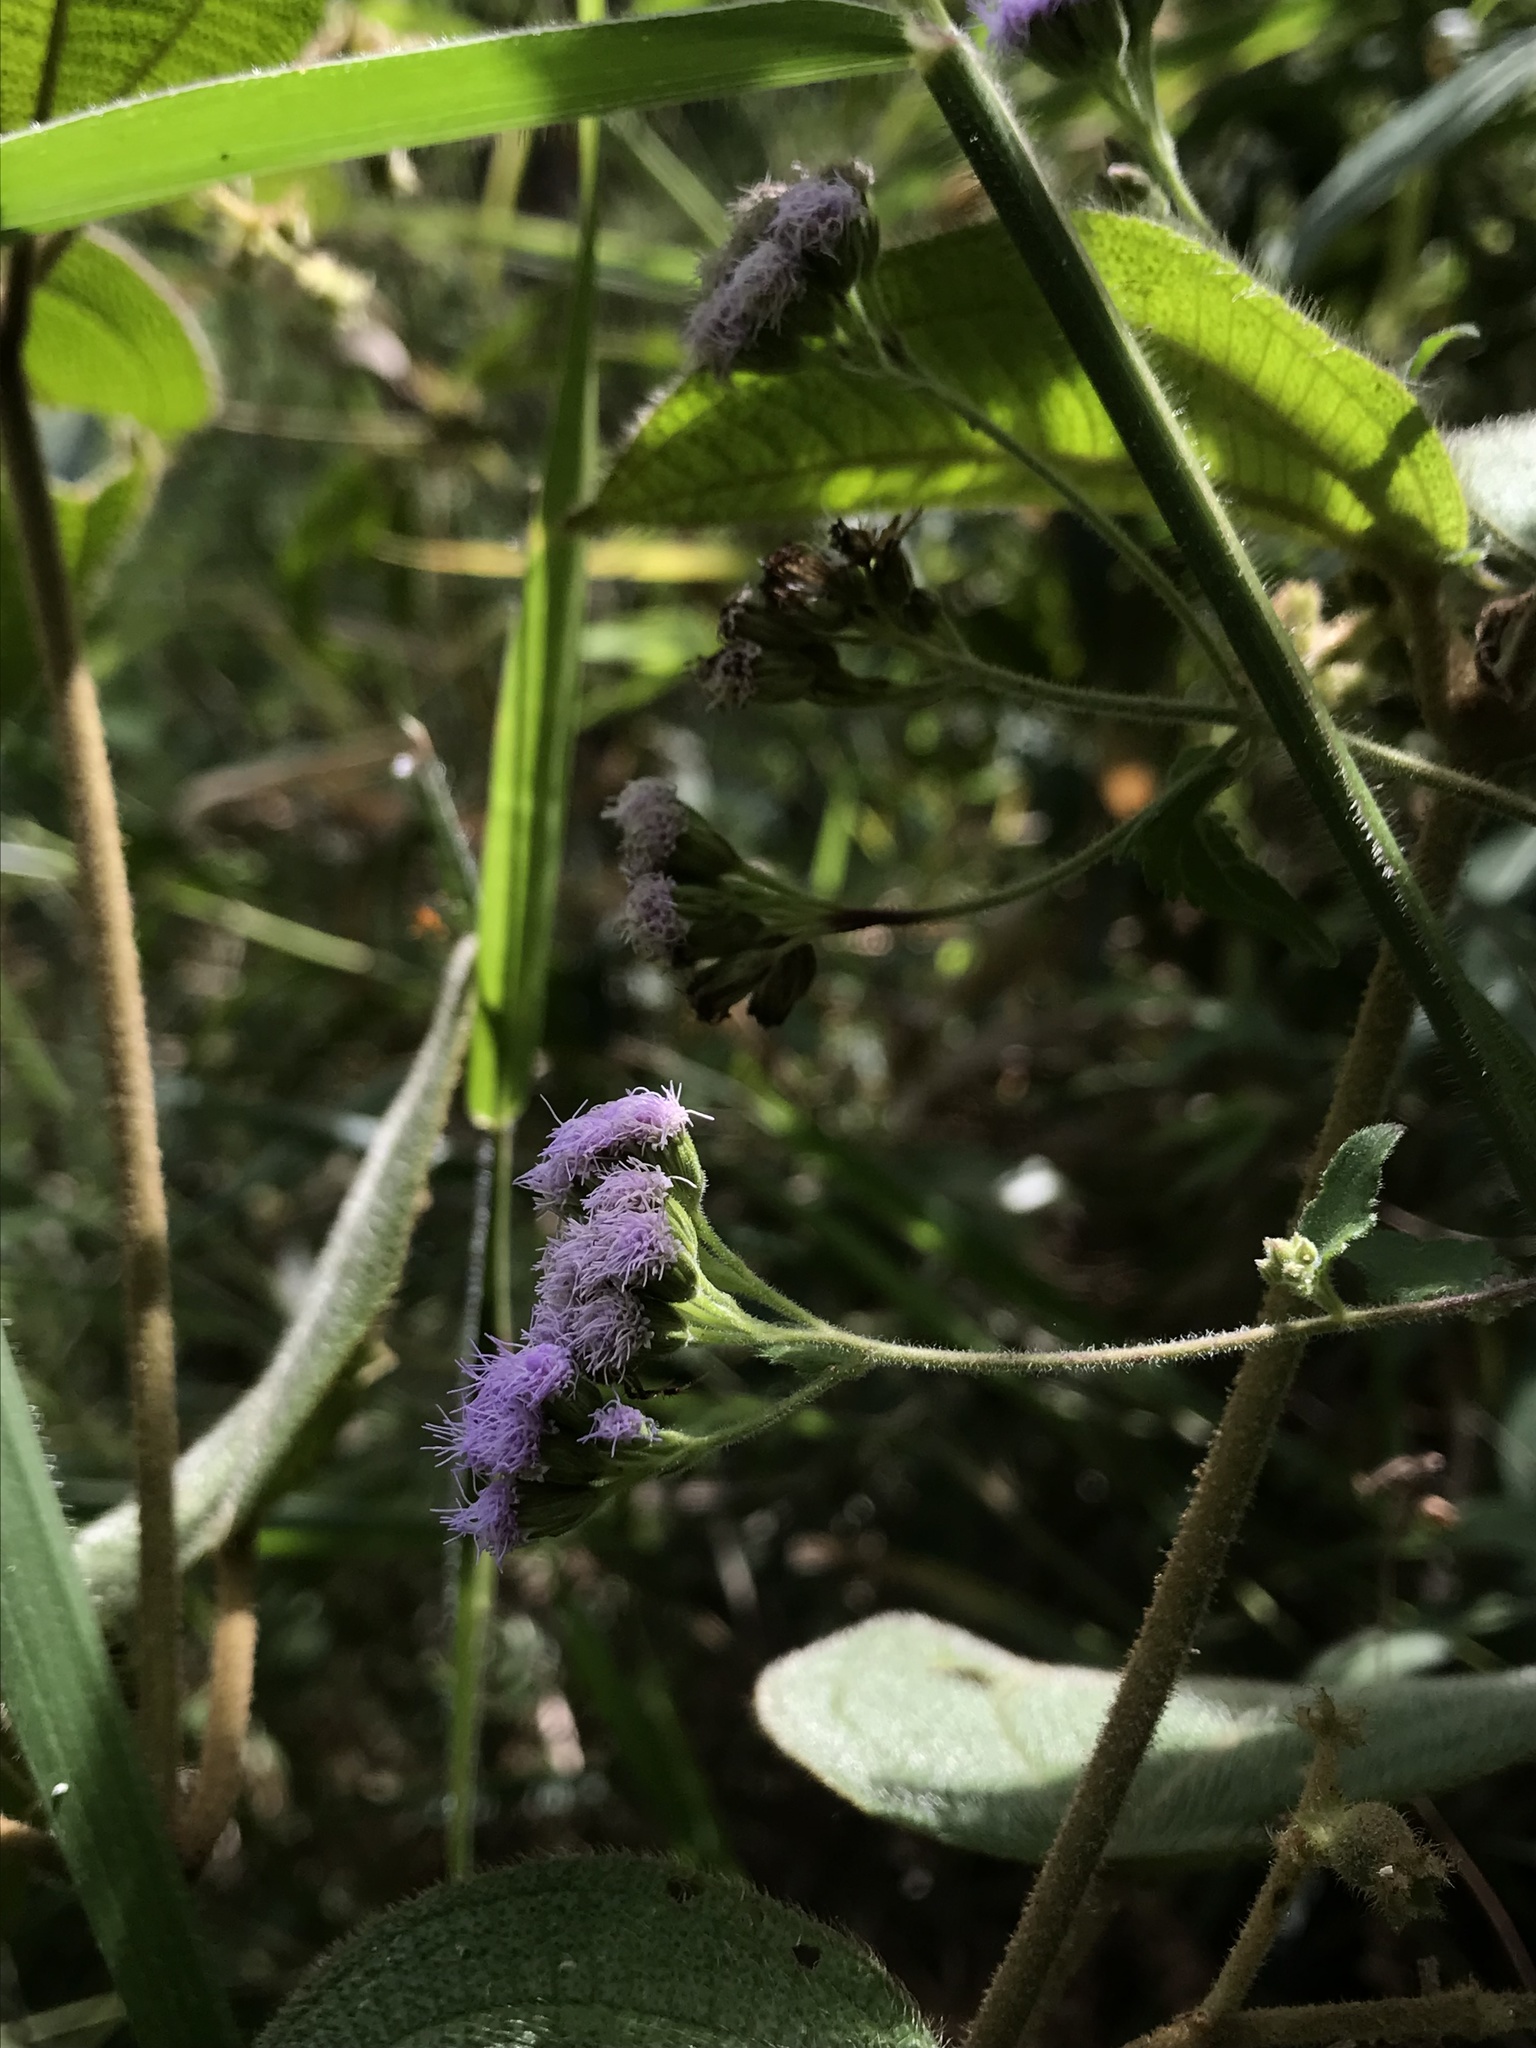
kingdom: Plantae
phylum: Tracheophyta
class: Magnoliopsida
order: Asterales
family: Asteraceae
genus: Fleischmannia
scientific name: Fleischmannia pycnocephala
